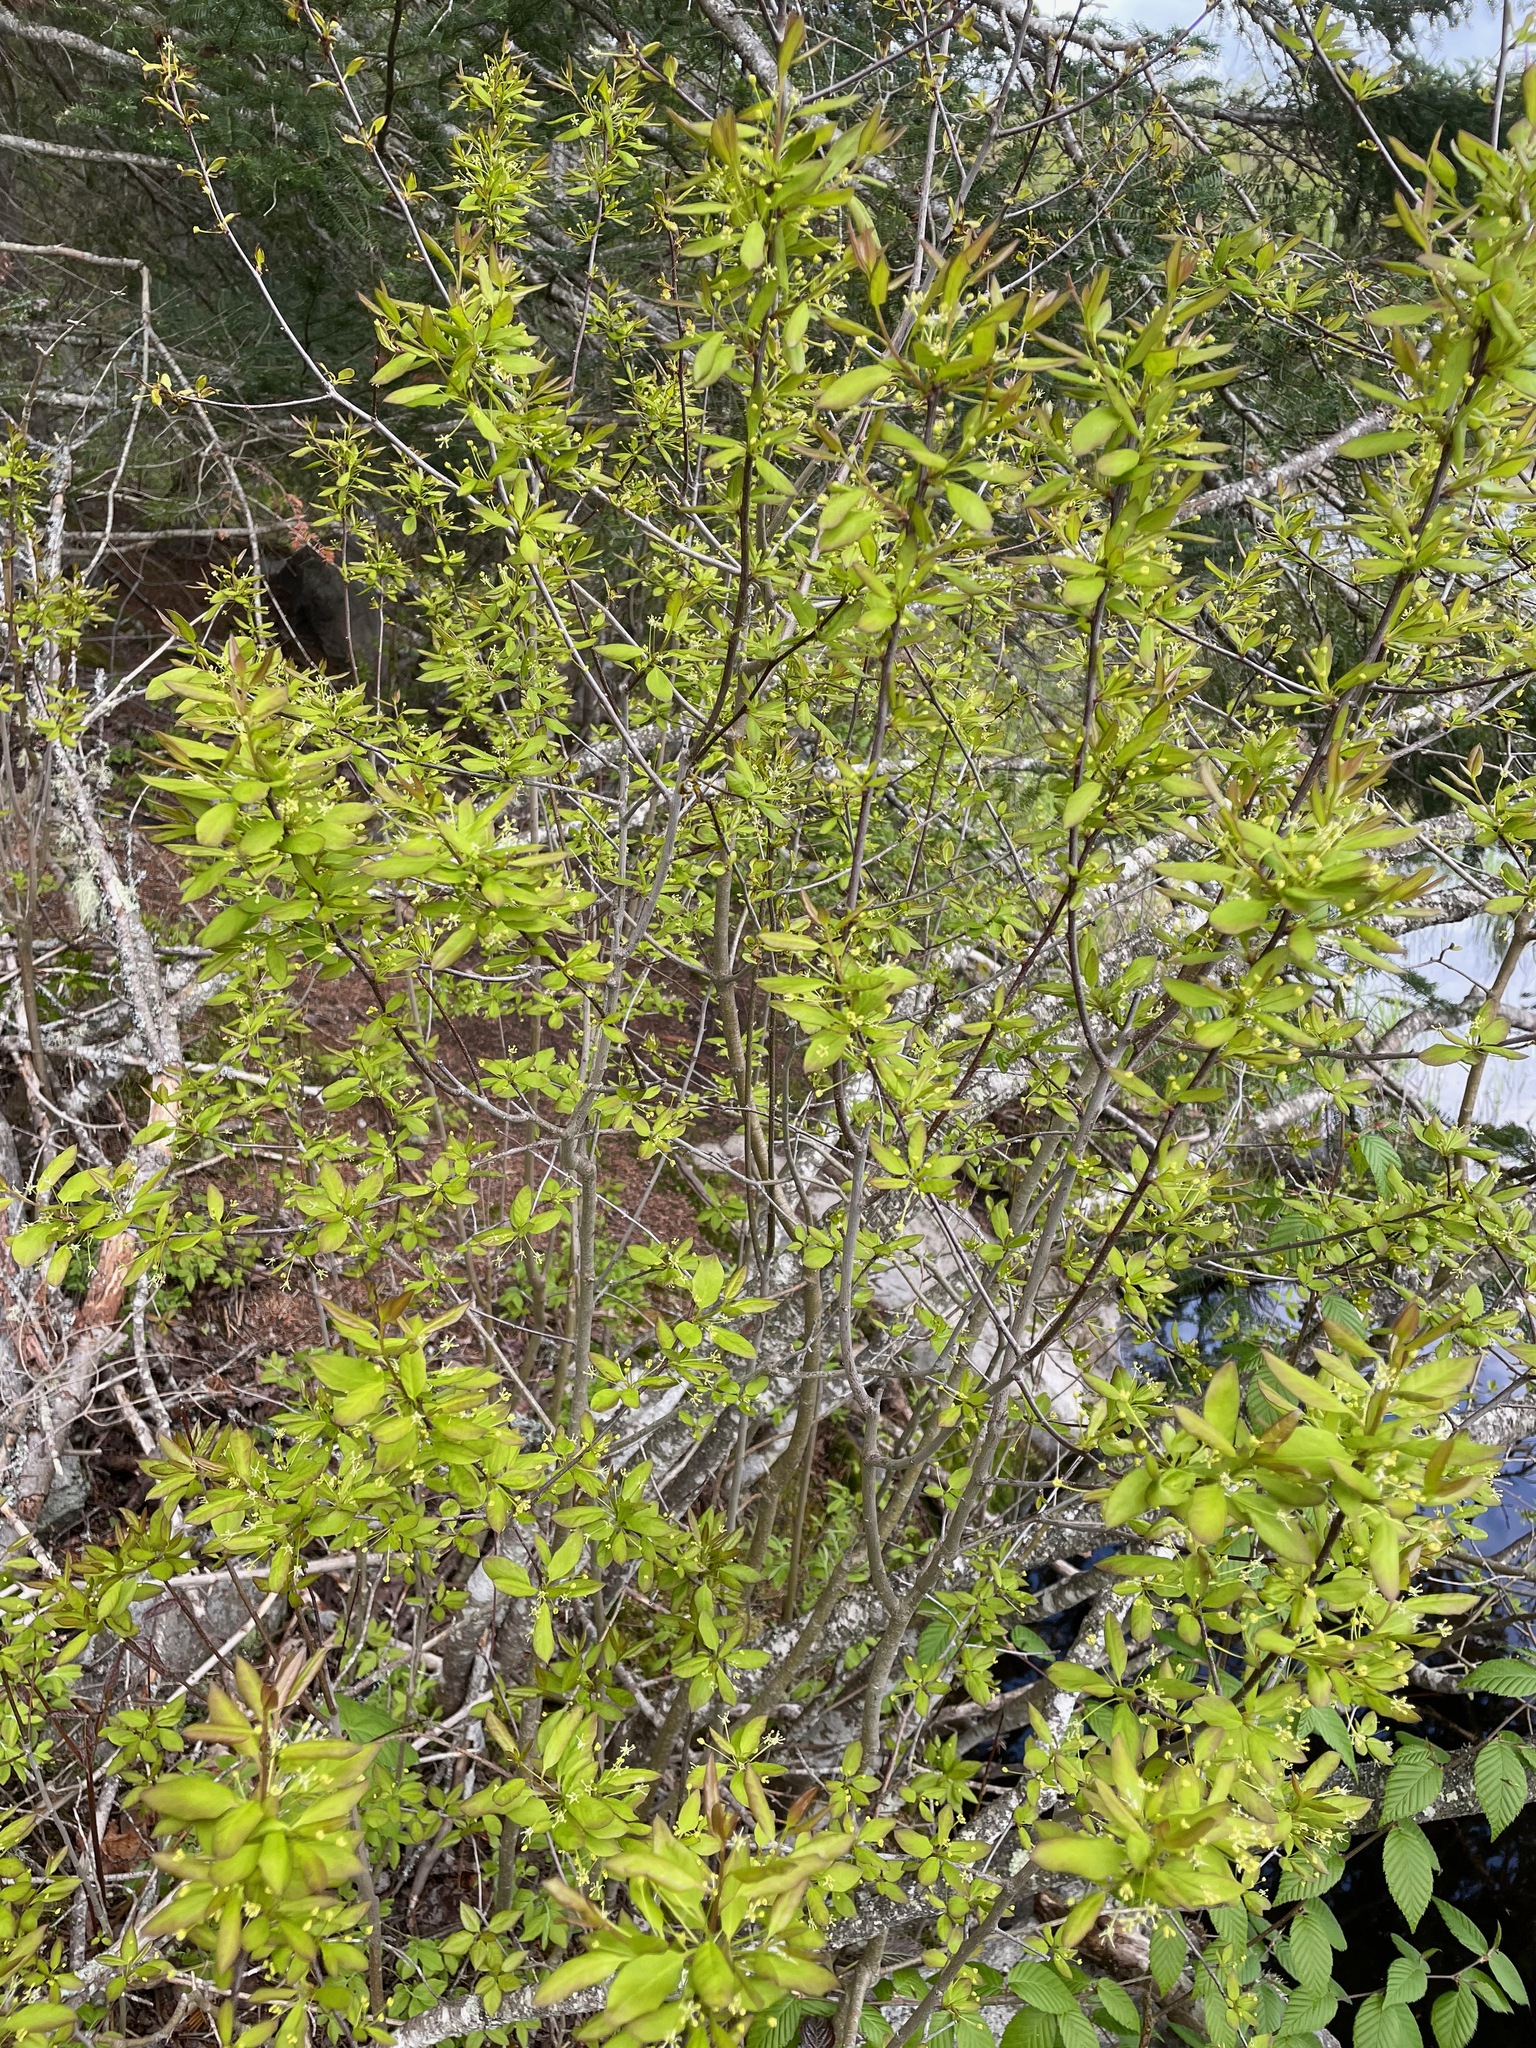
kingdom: Plantae
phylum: Tracheophyta
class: Magnoliopsida
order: Aquifoliales
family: Aquifoliaceae
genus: Ilex
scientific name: Ilex mucronata
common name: Catberry
